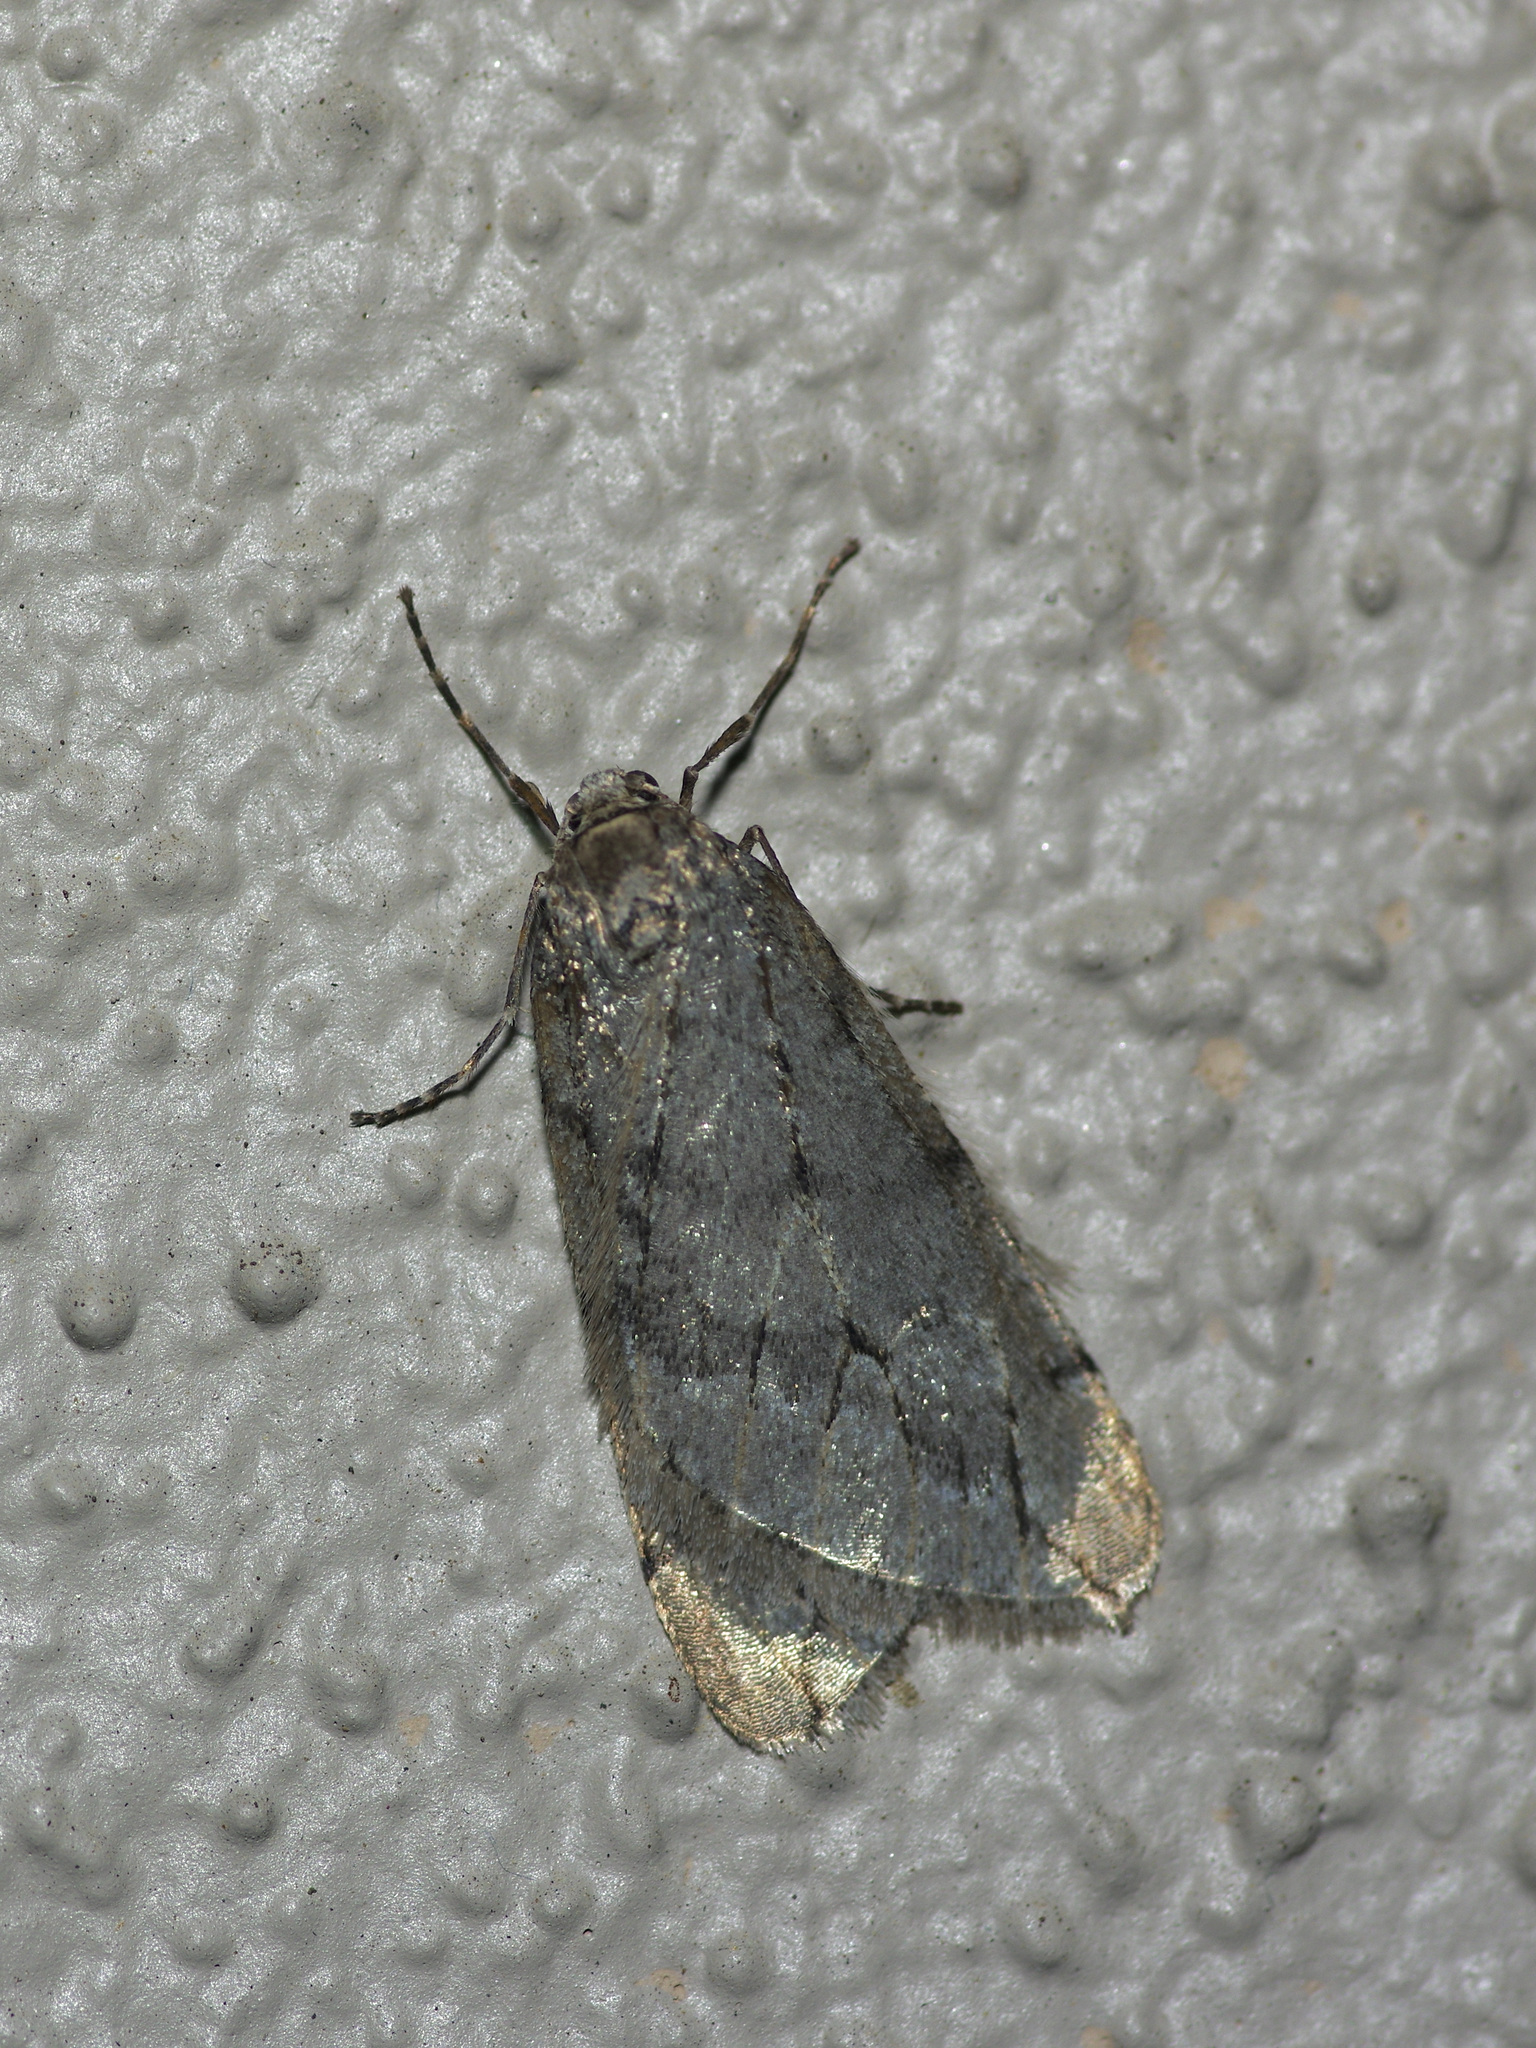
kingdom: Animalia
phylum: Arthropoda
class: Insecta
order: Lepidoptera
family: Geometridae
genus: Paleacrita
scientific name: Paleacrita vernata
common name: Spring cankerworm
